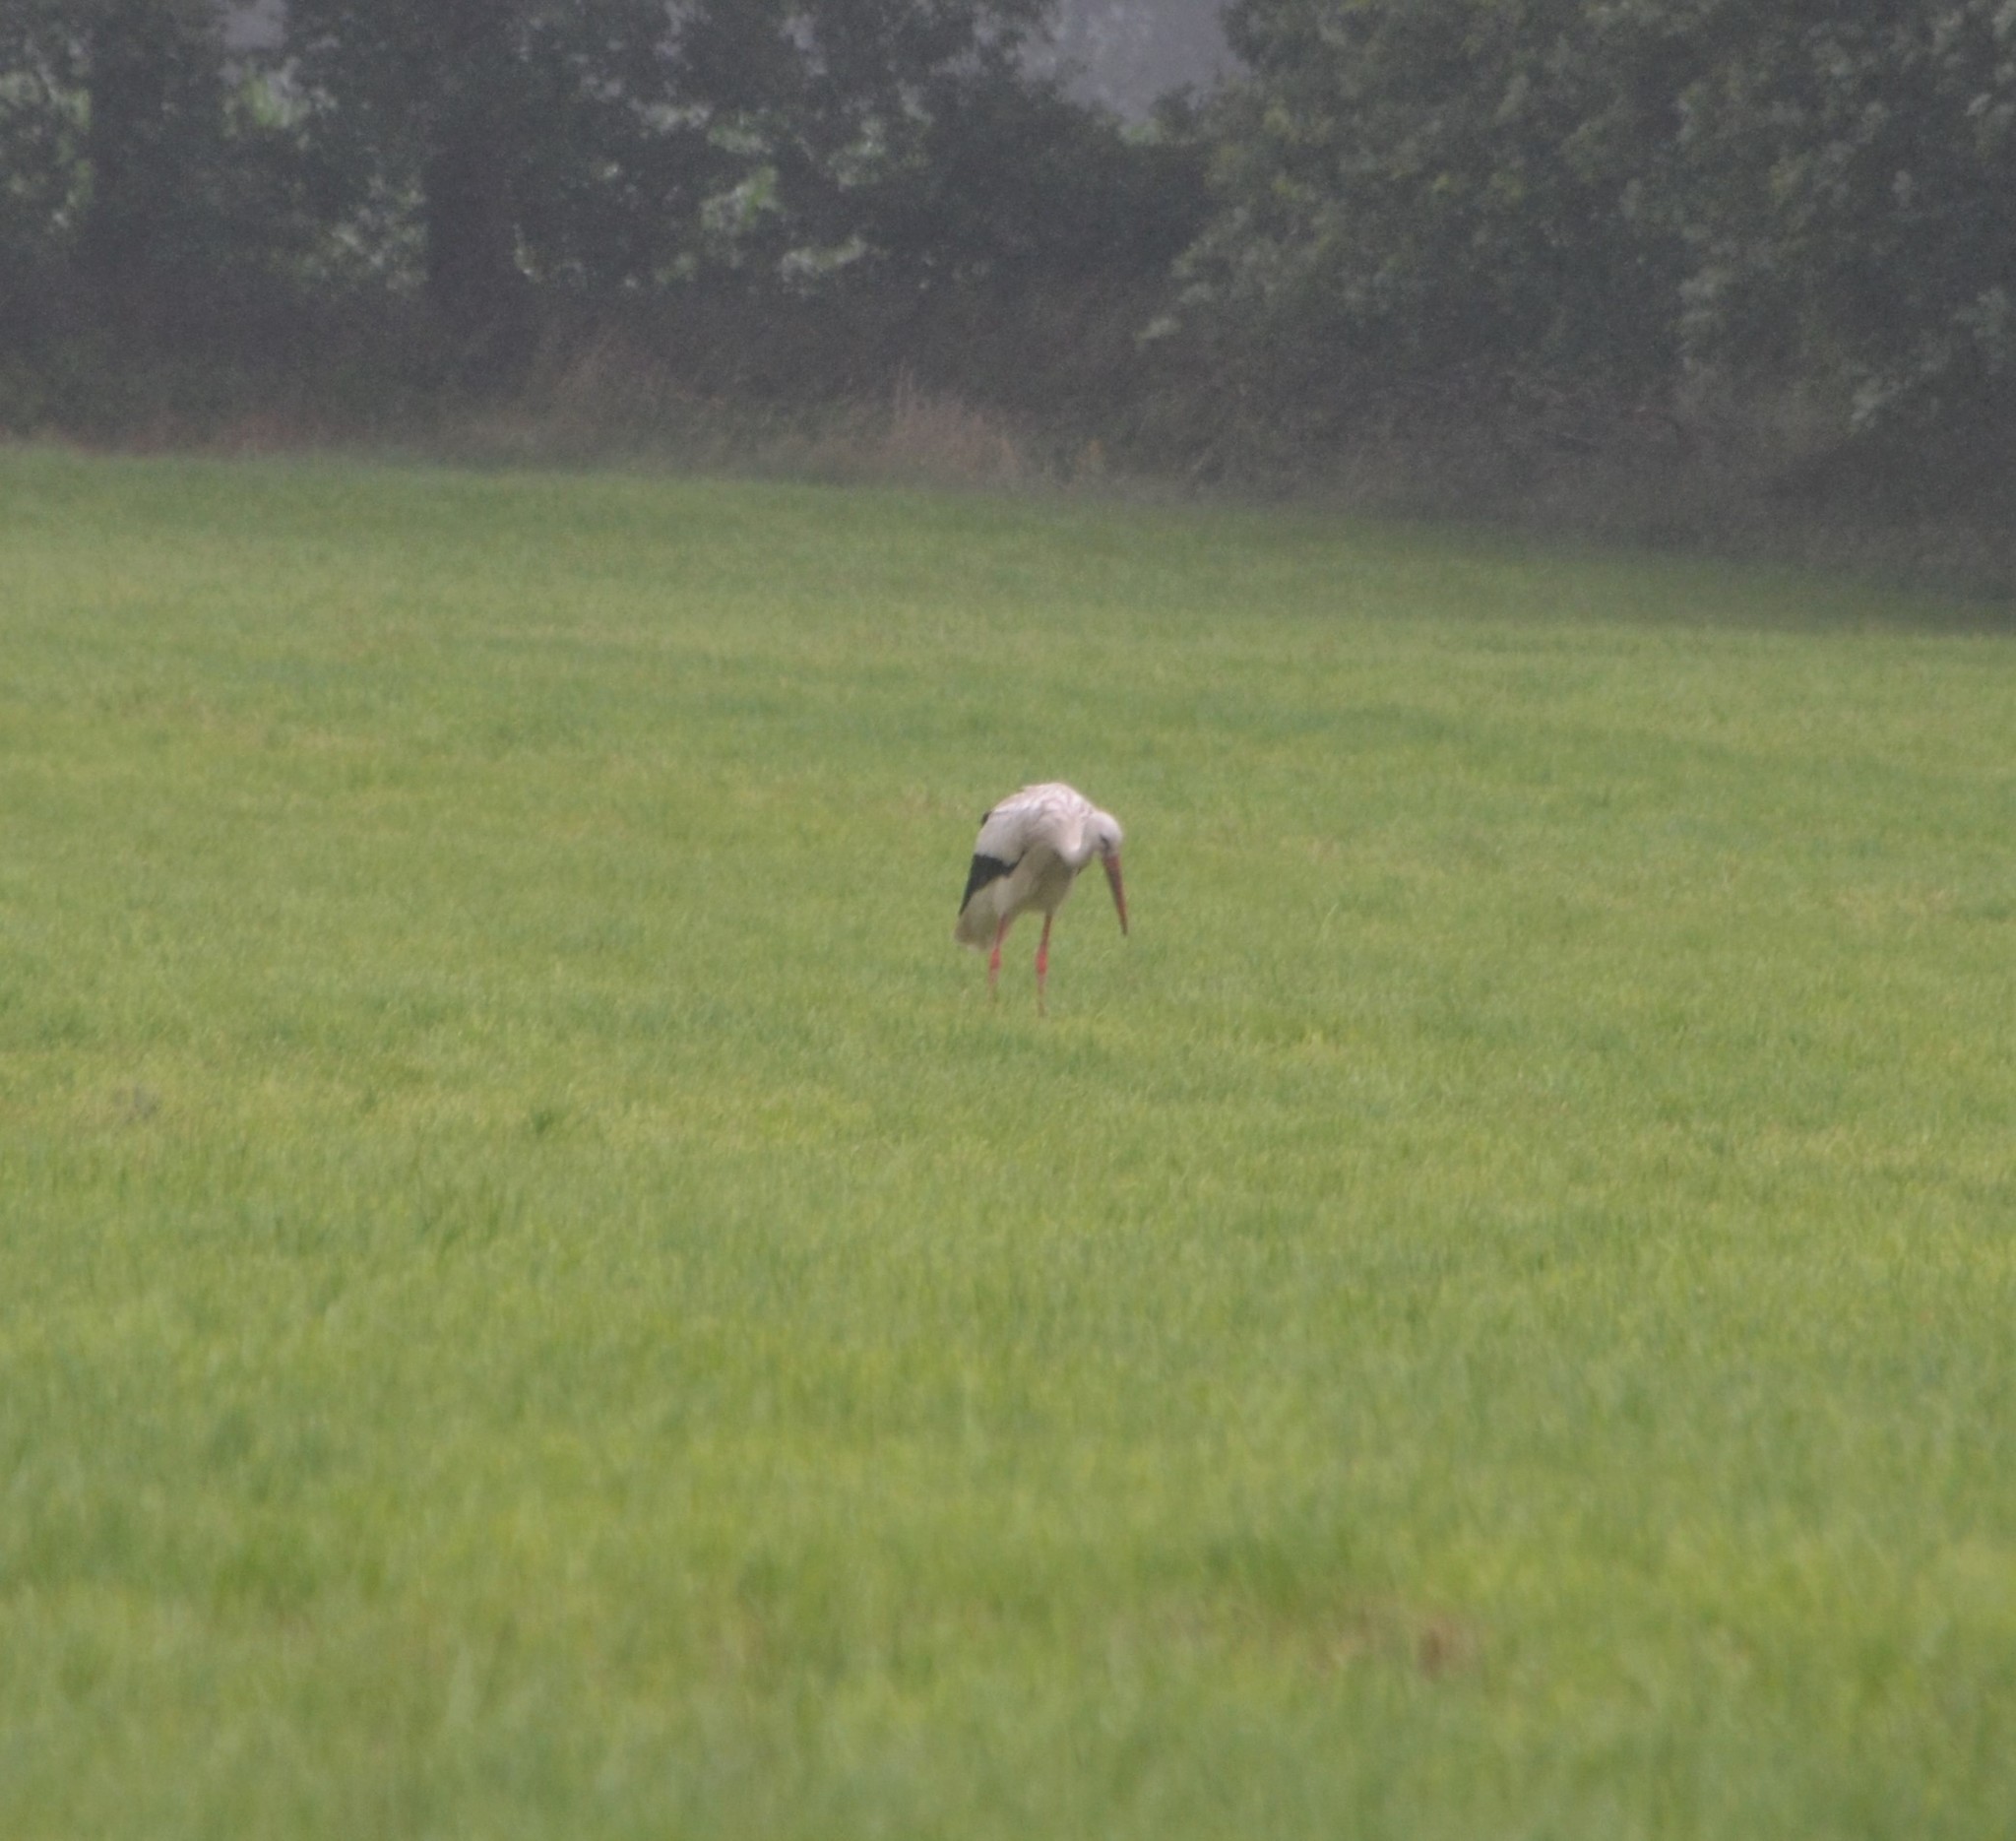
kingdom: Animalia
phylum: Chordata
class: Aves
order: Ciconiiformes
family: Ciconiidae
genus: Ciconia
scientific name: Ciconia ciconia
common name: White stork
